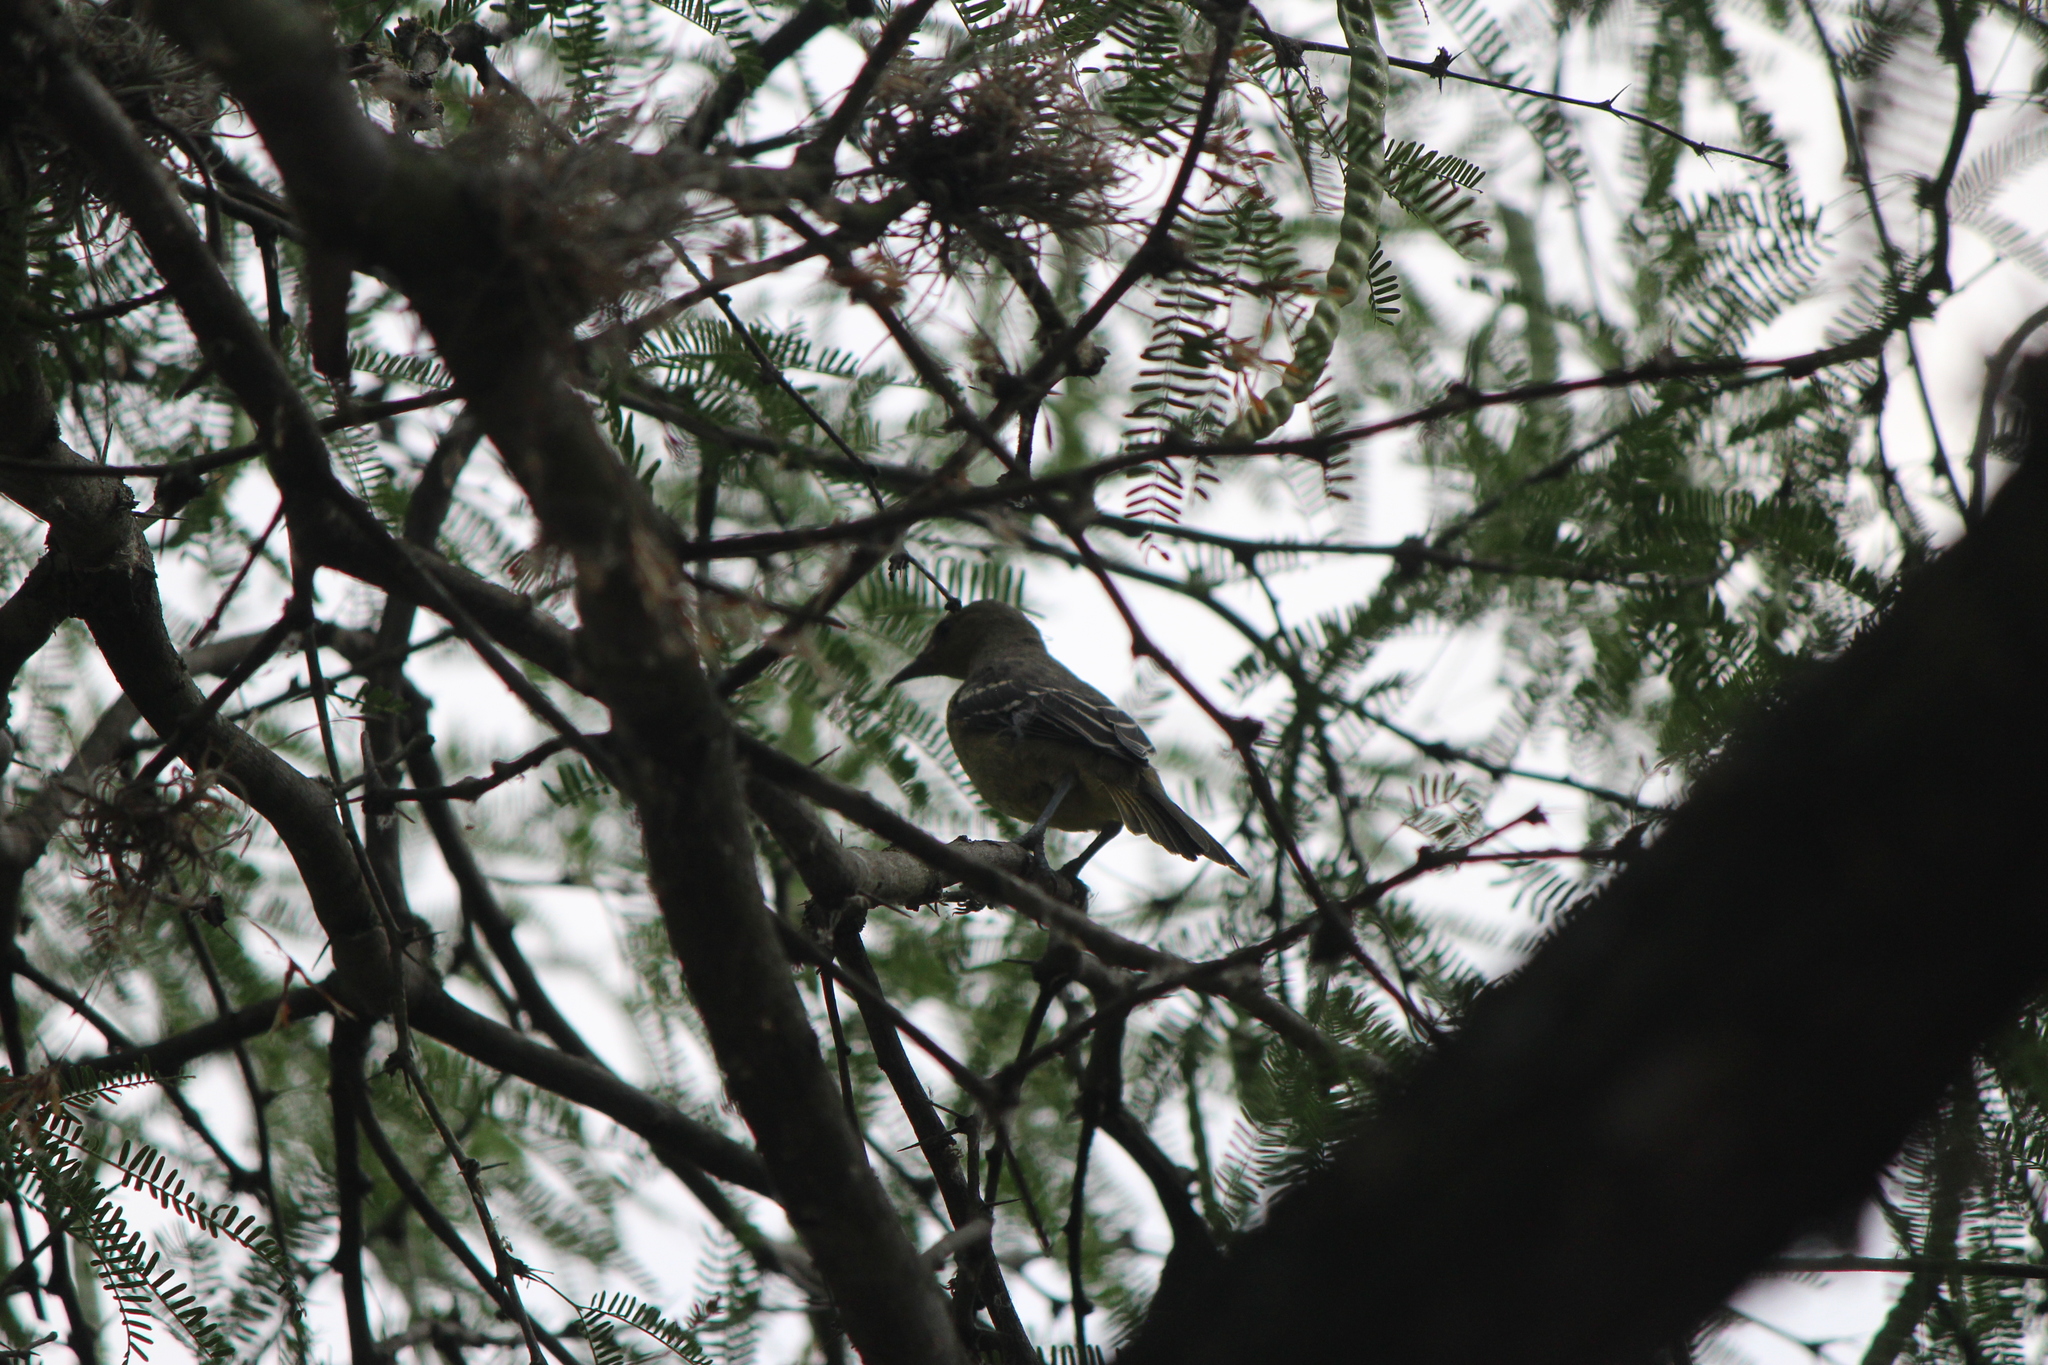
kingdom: Animalia
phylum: Chordata
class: Aves
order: Passeriformes
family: Cardinalidae
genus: Piranga
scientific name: Piranga ludoviciana
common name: Western tanager
